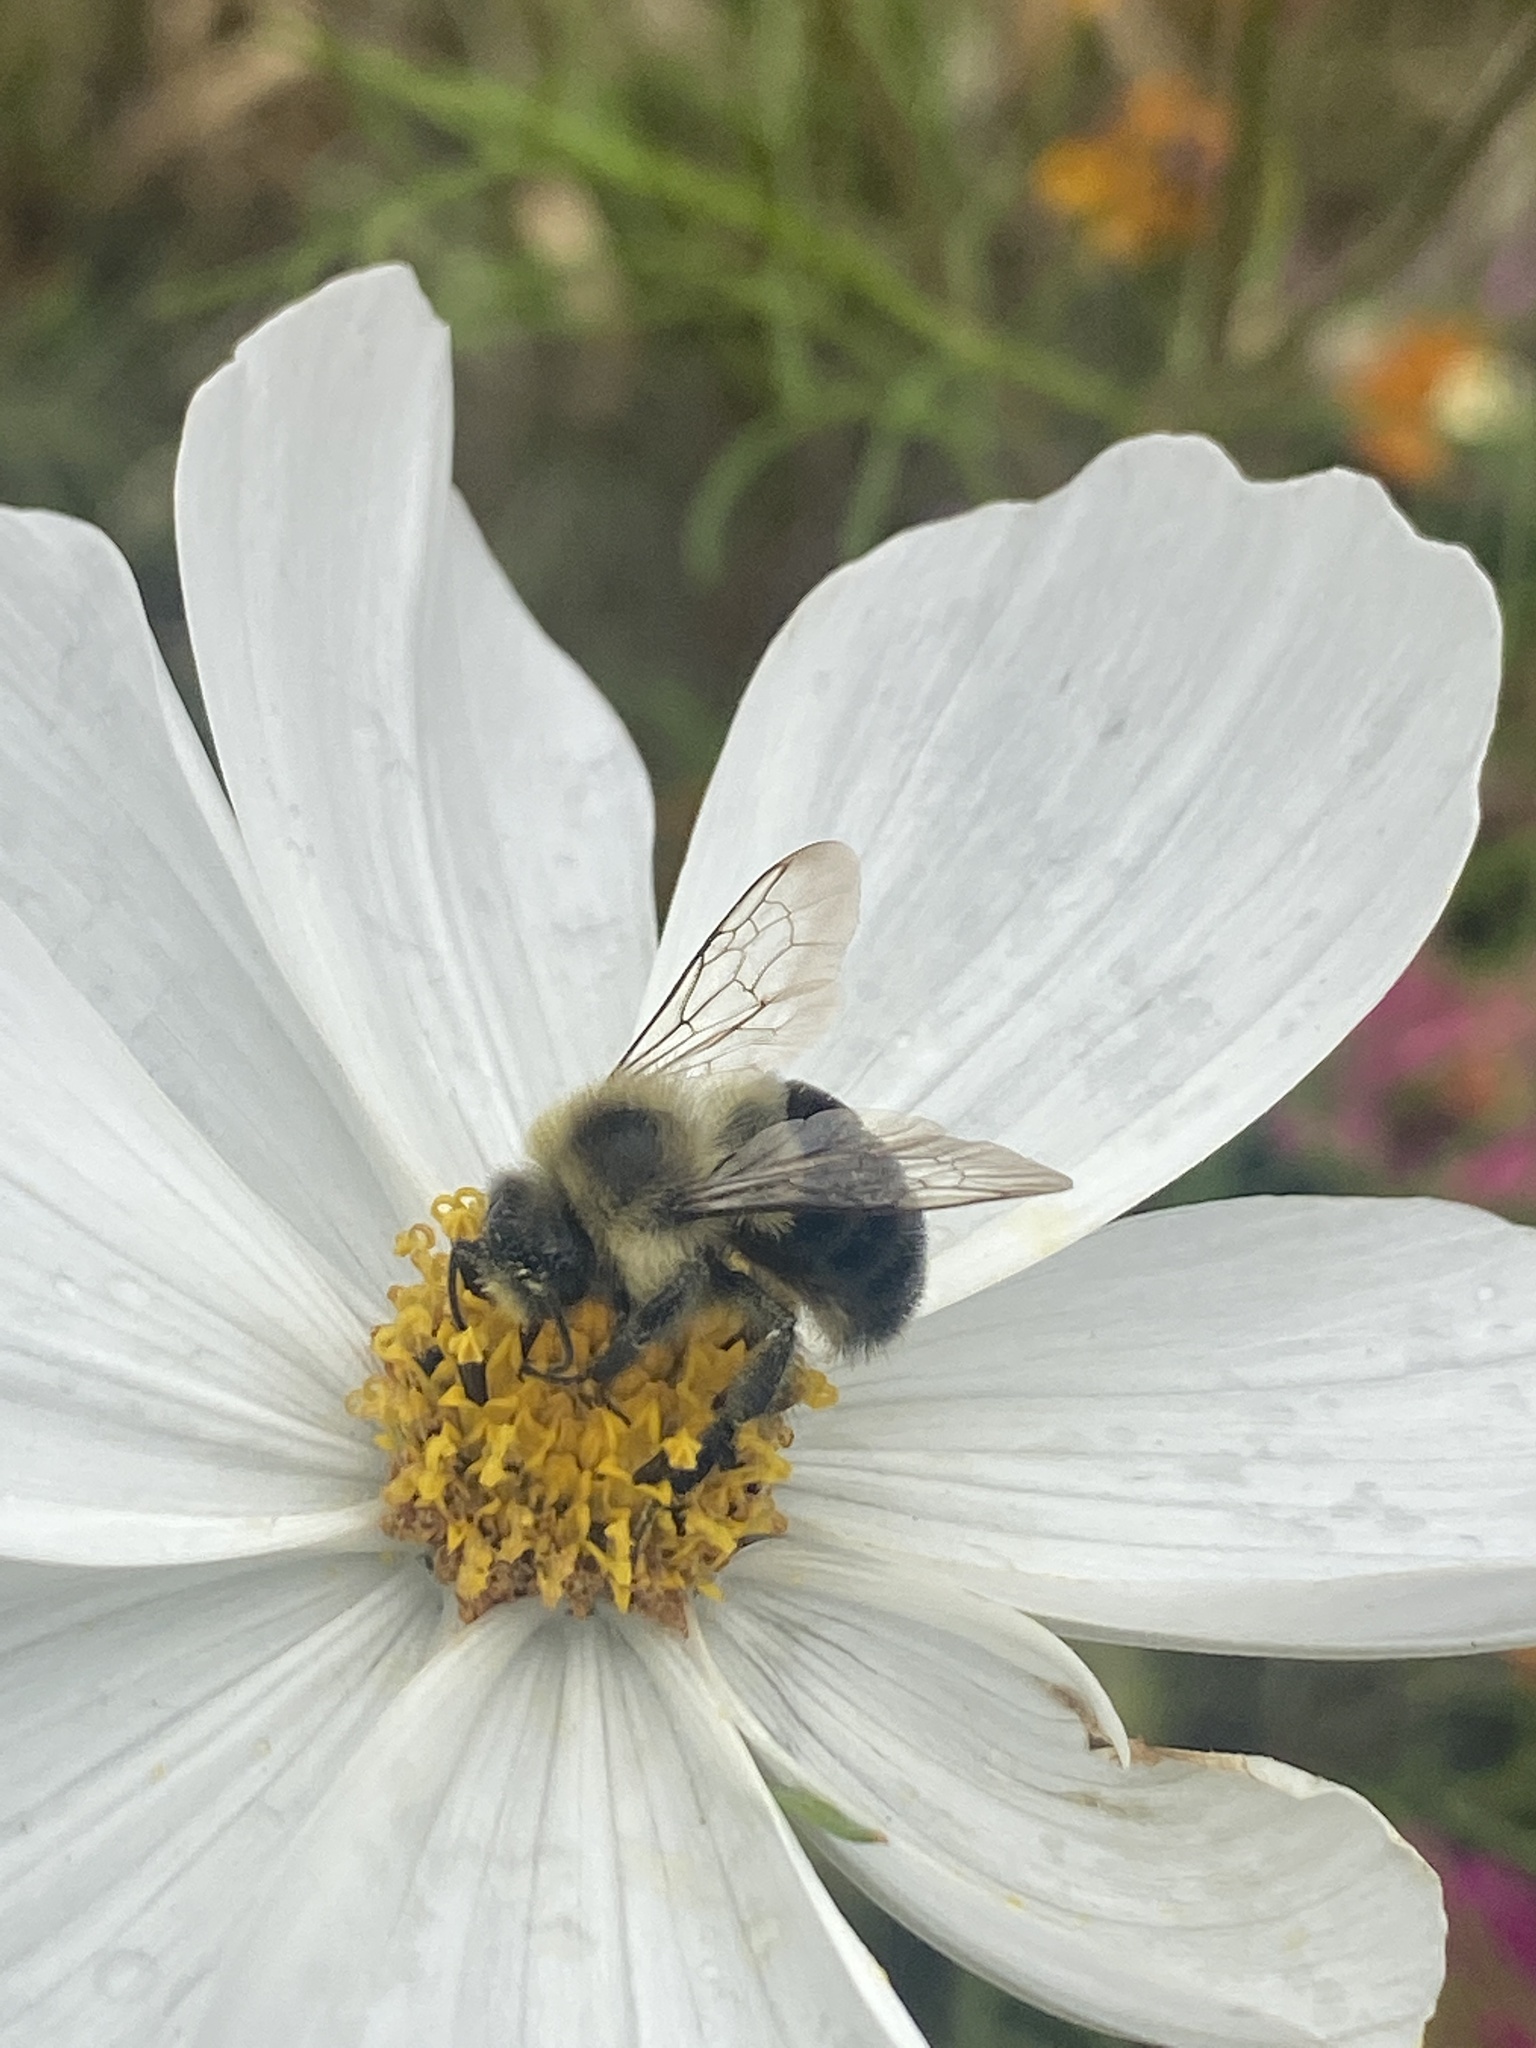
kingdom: Animalia
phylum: Arthropoda
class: Insecta
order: Hymenoptera
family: Apidae
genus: Bombus
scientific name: Bombus impatiens
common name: Common eastern bumble bee
